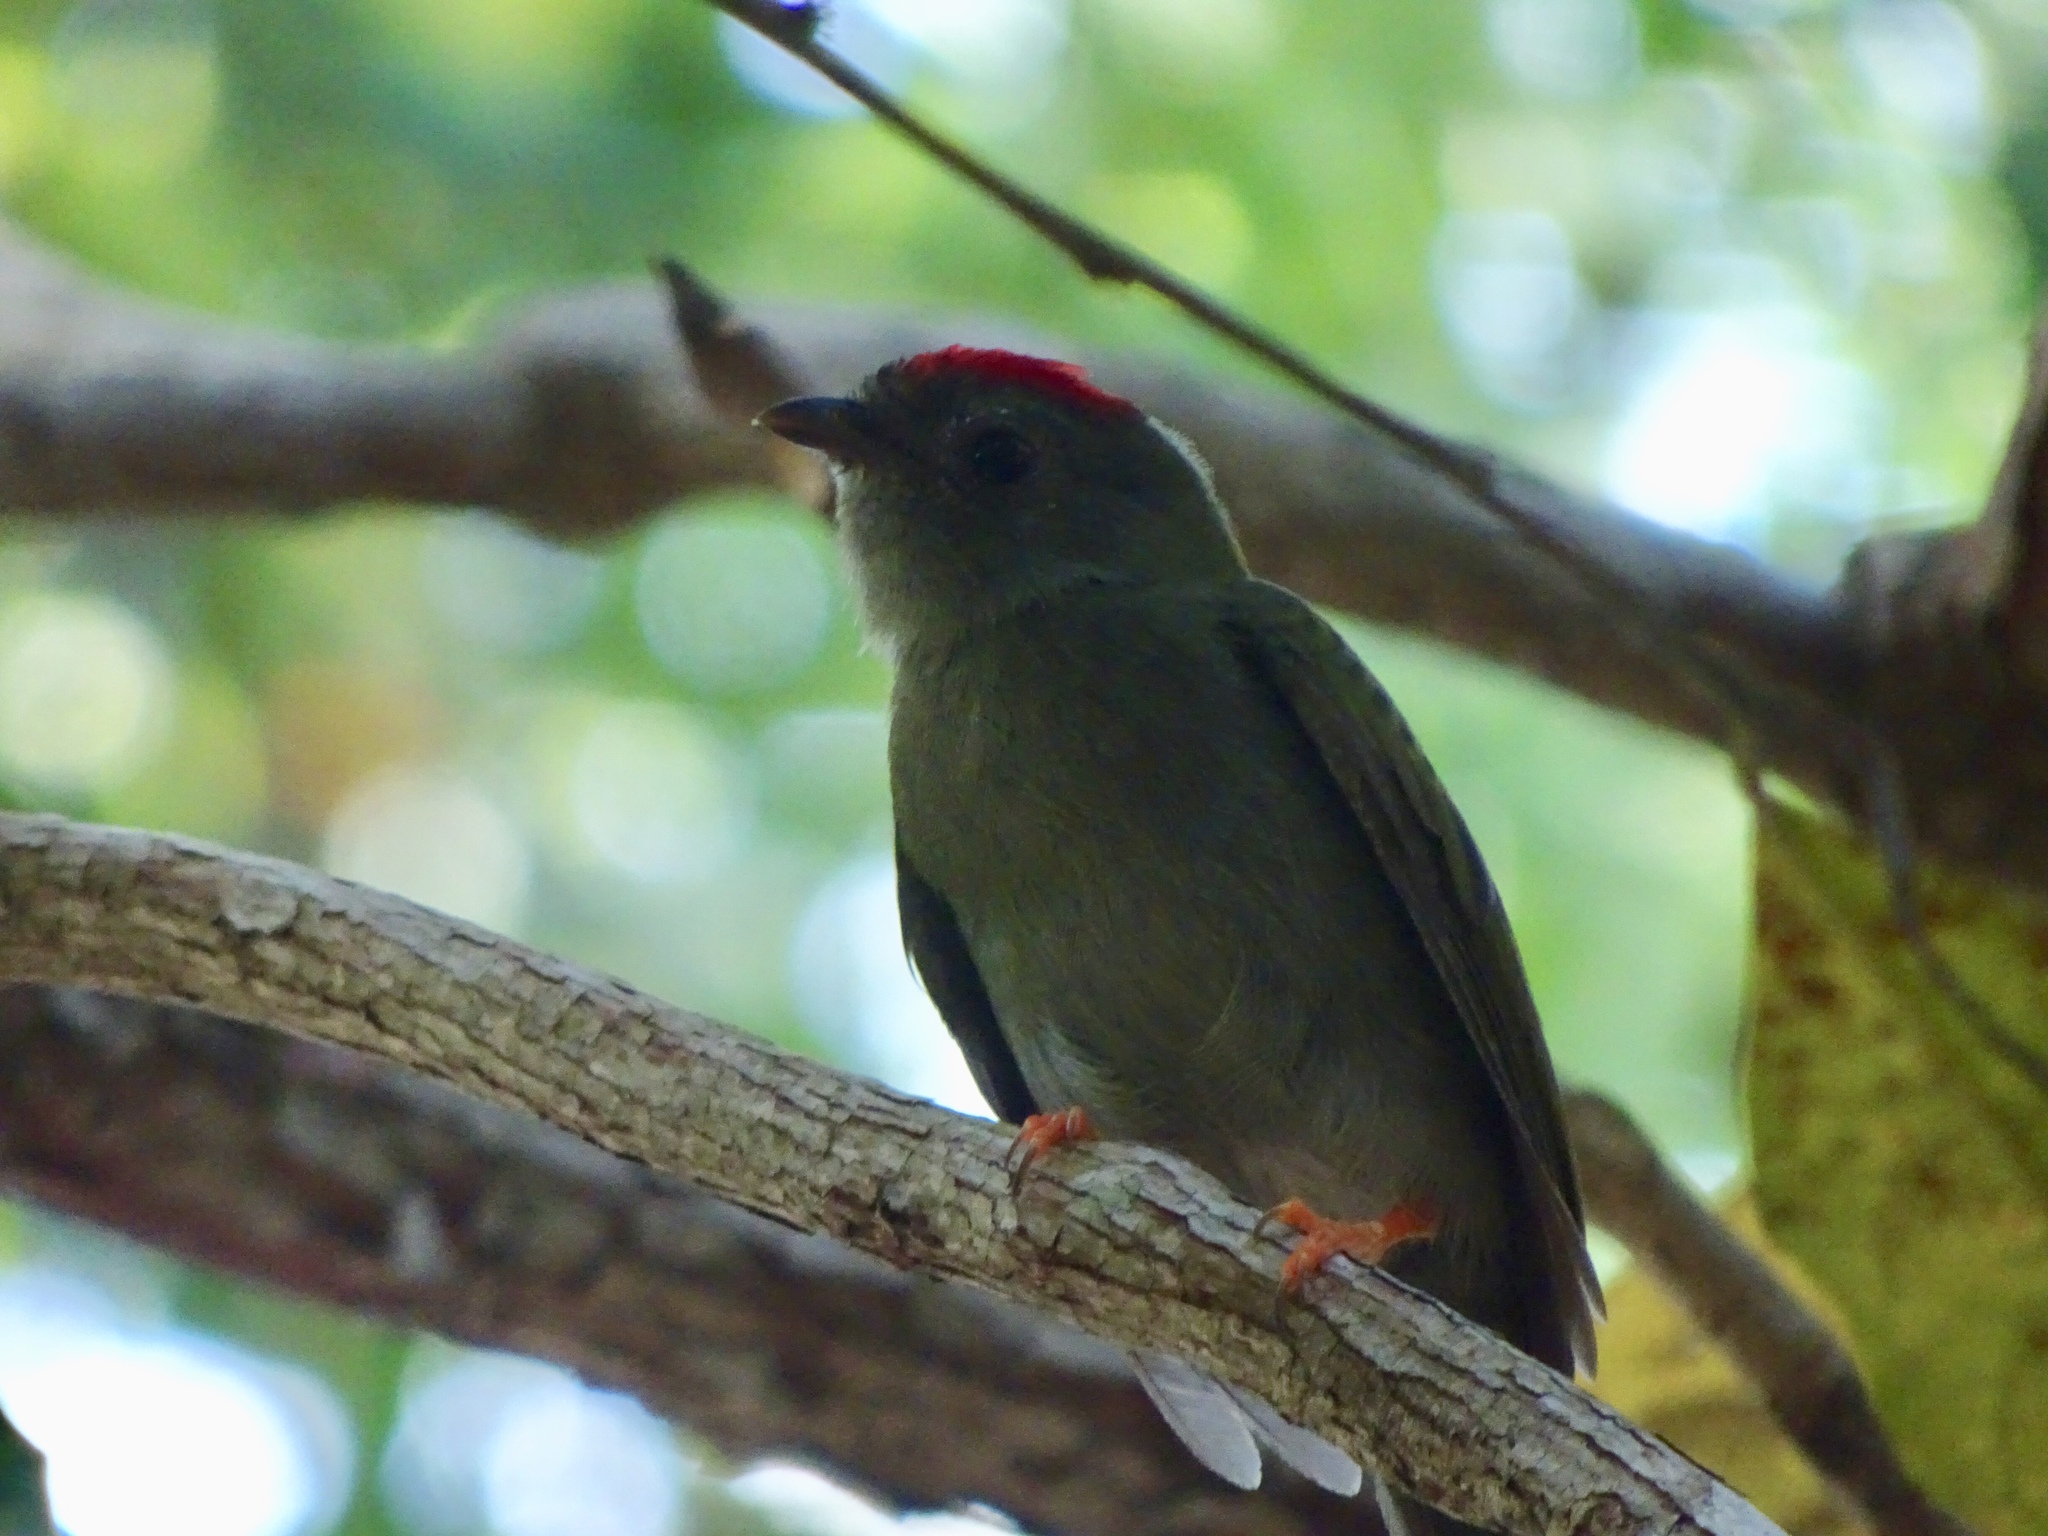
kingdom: Animalia
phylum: Chordata
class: Aves
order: Passeriformes
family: Pipridae
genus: Chiroxiphia
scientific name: Chiroxiphia lanceolata
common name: Lance-tailed manakin
